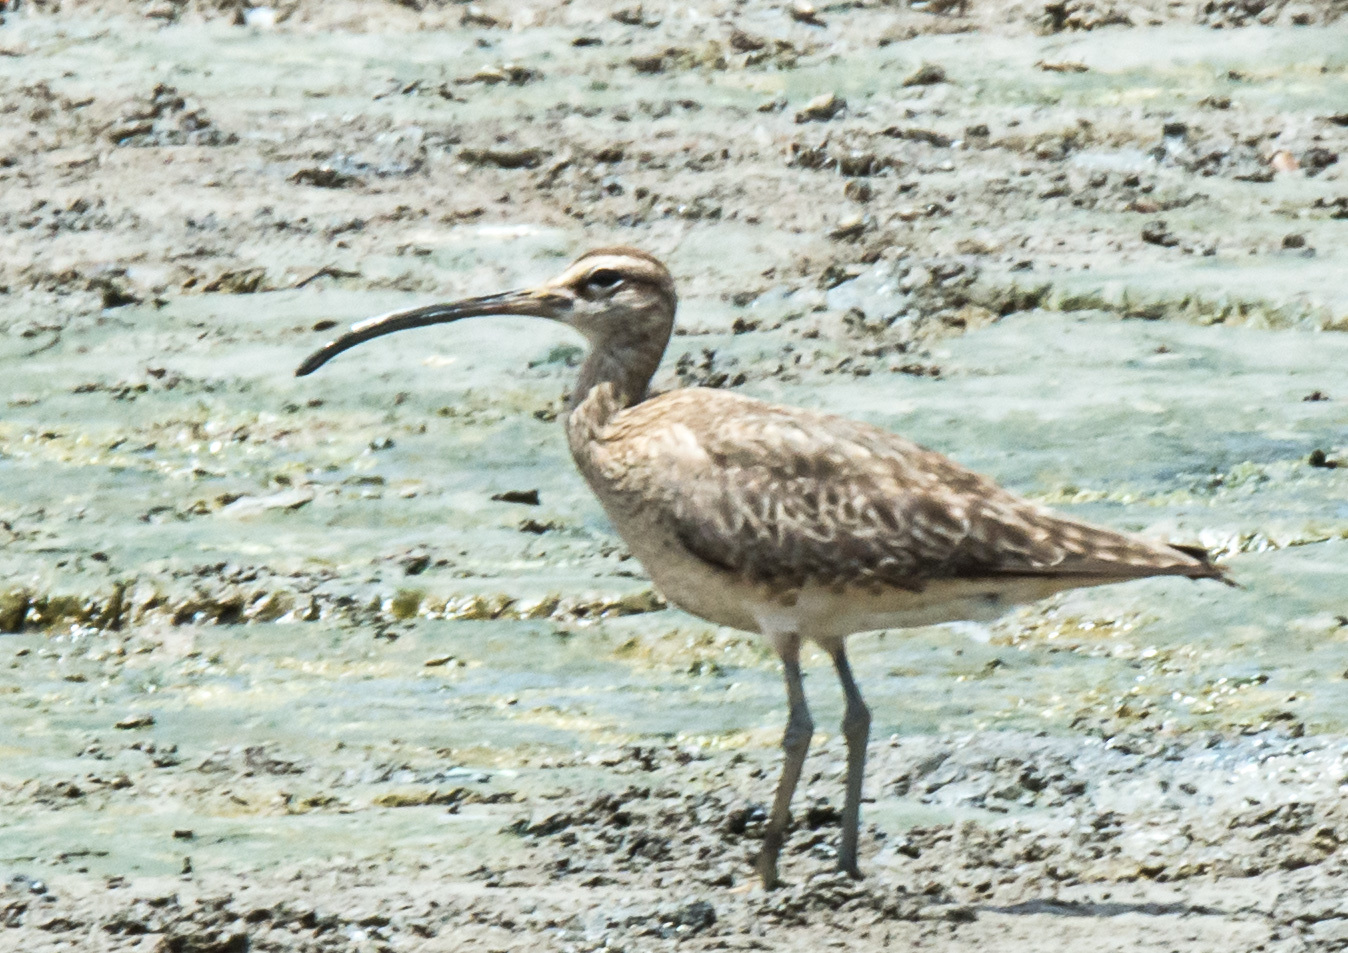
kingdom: Animalia
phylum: Chordata
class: Aves
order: Charadriiformes
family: Scolopacidae
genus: Numenius
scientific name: Numenius phaeopus
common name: Whimbrel
